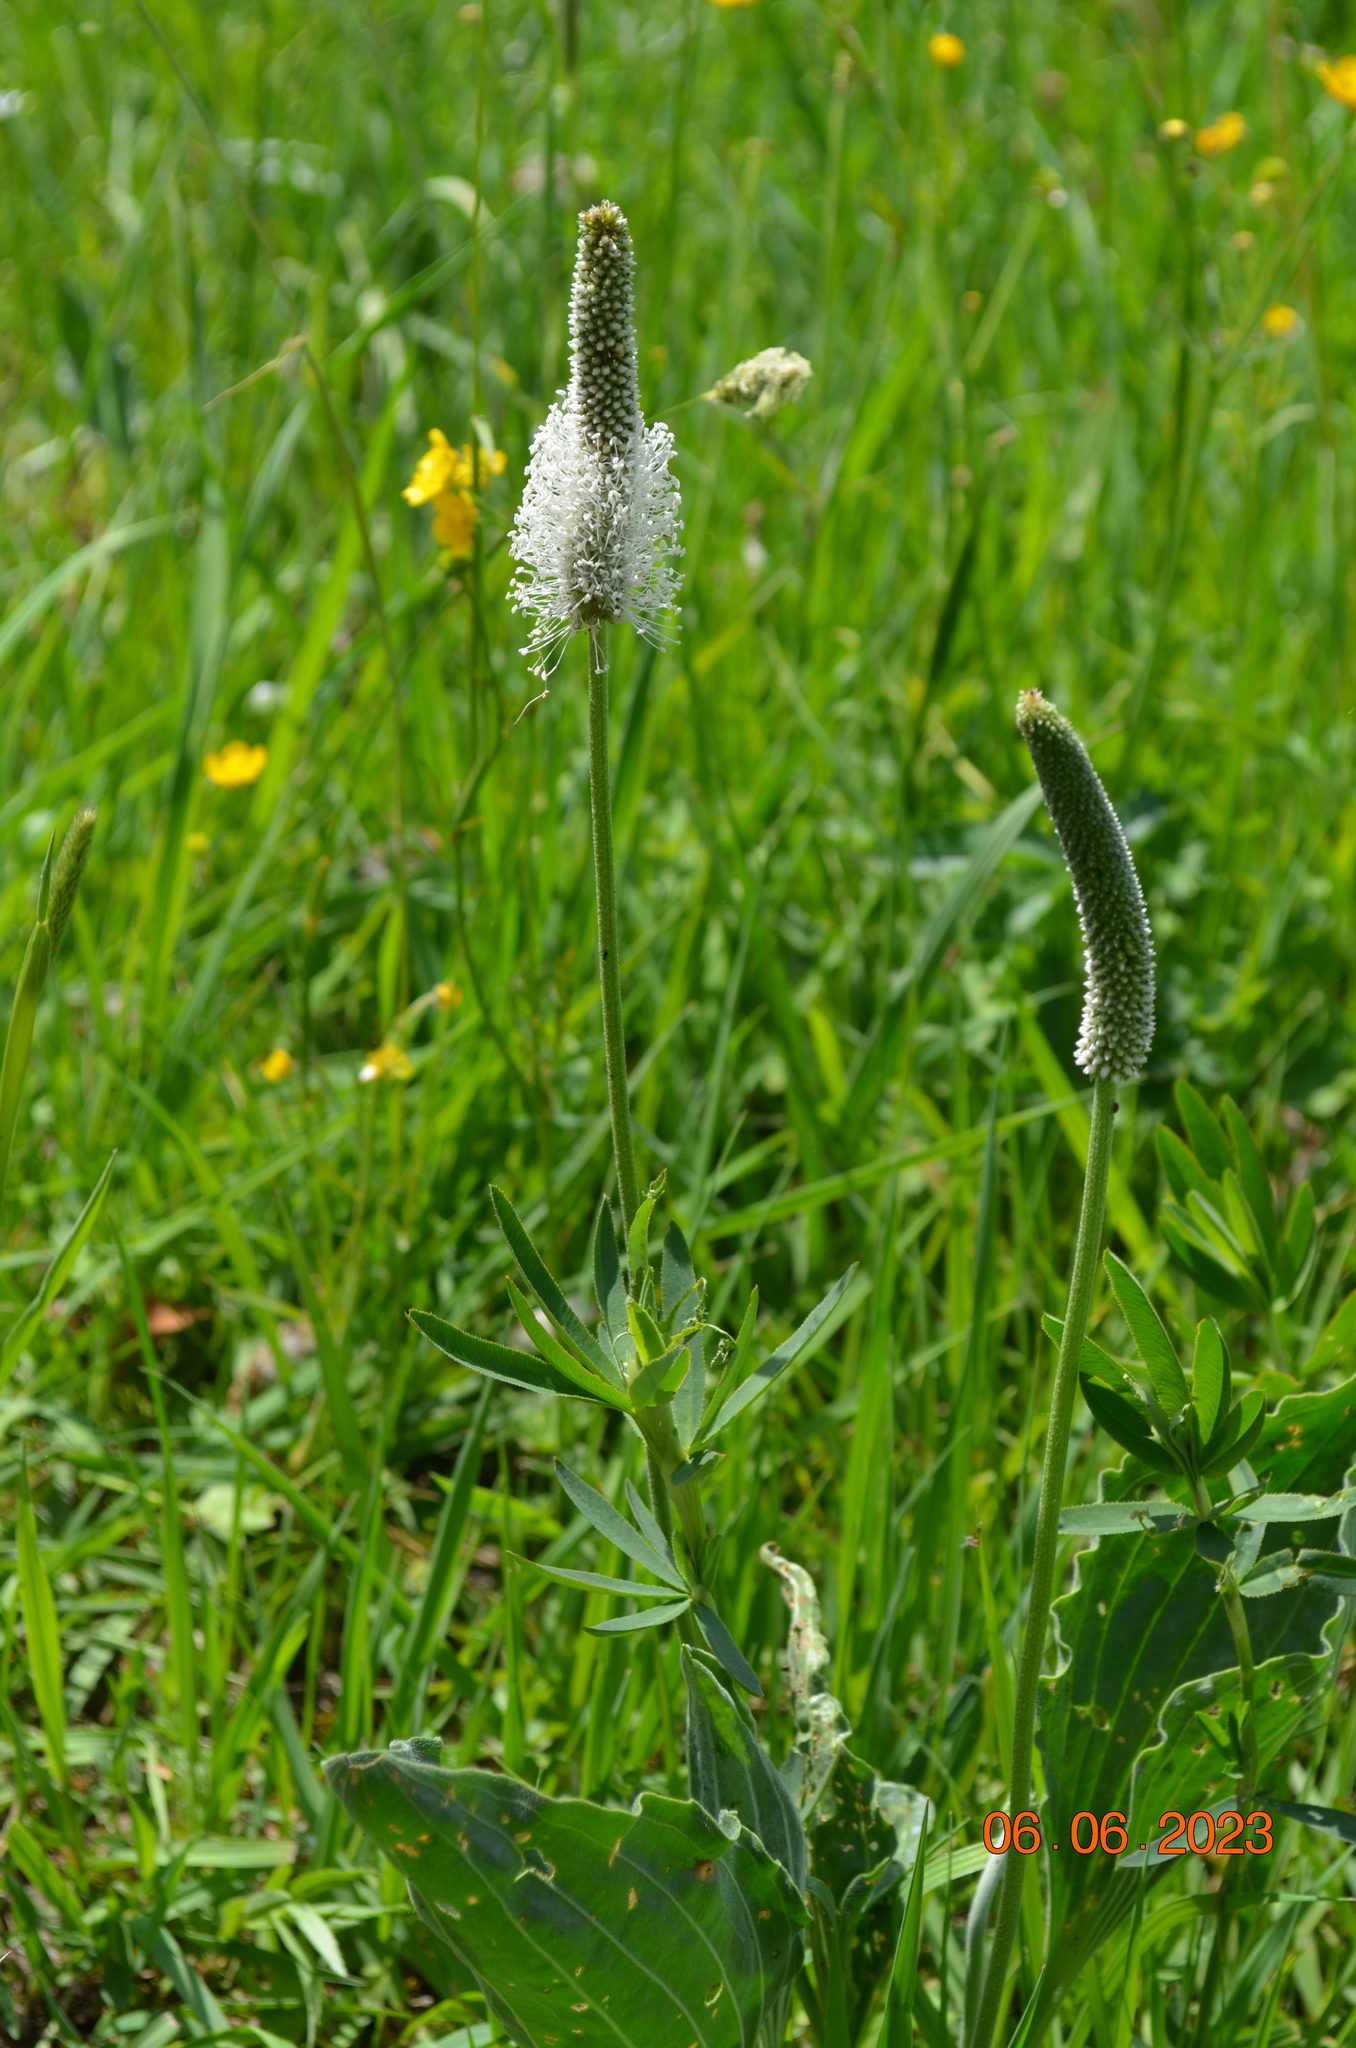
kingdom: Plantae
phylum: Tracheophyta
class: Magnoliopsida
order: Lamiales
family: Plantaginaceae
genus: Plantago
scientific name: Plantago media
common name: Hoary plantain
